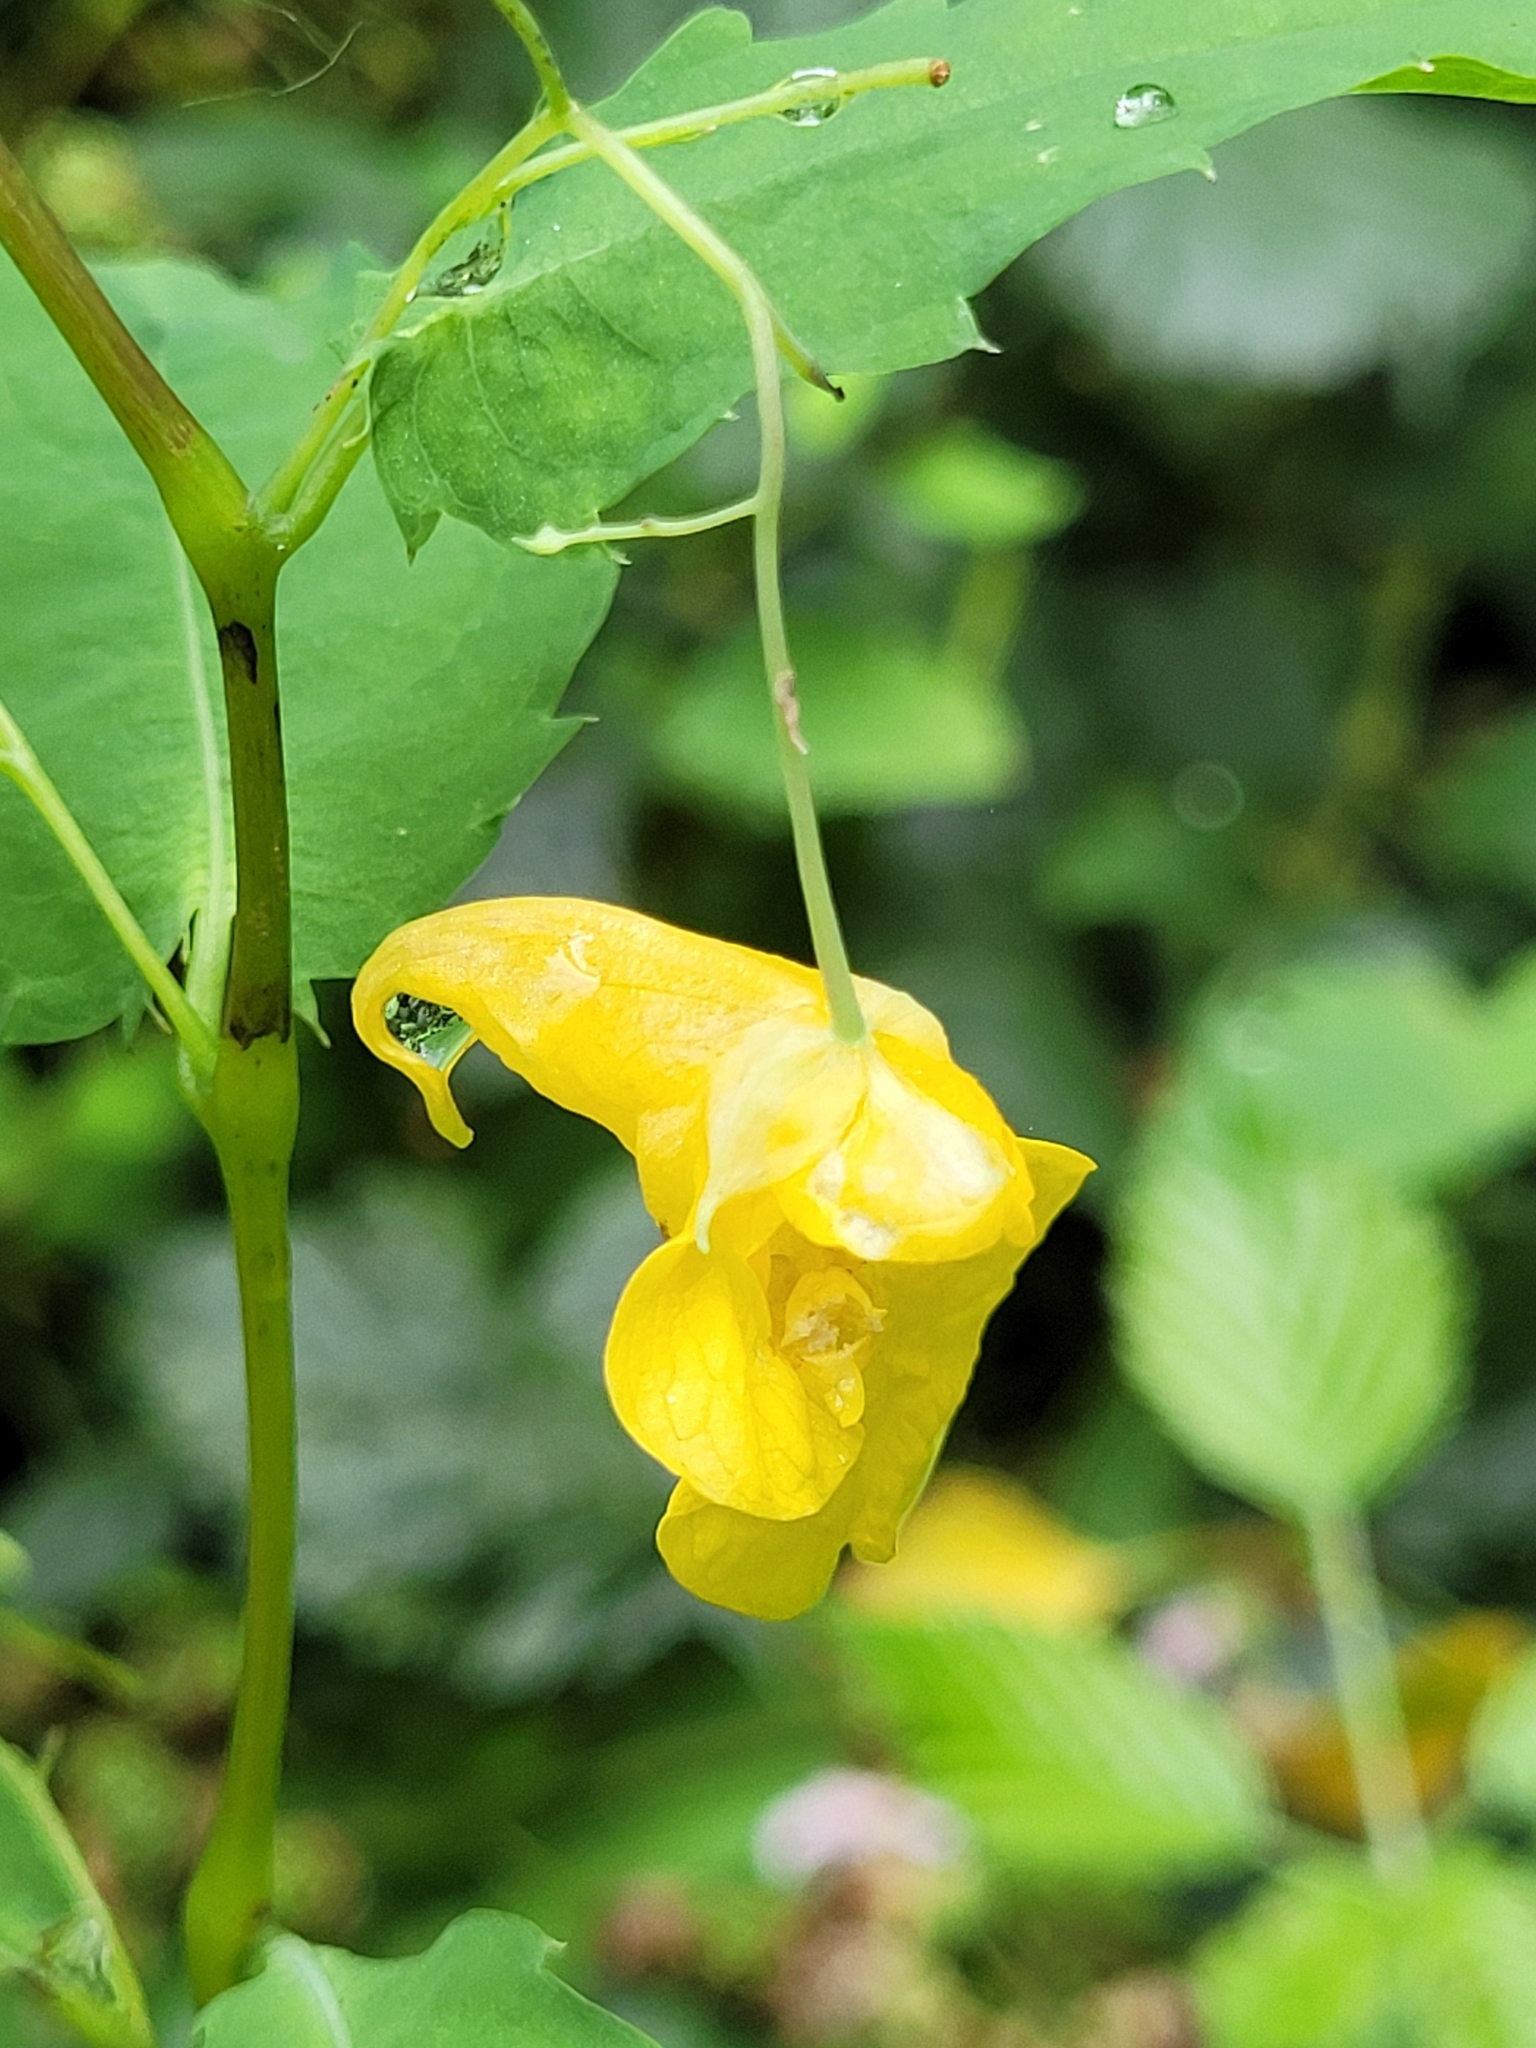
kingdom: Plantae
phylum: Tracheophyta
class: Magnoliopsida
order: Ericales
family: Balsaminaceae
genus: Impatiens
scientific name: Impatiens noli-tangere
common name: Touch-me-not balsam
